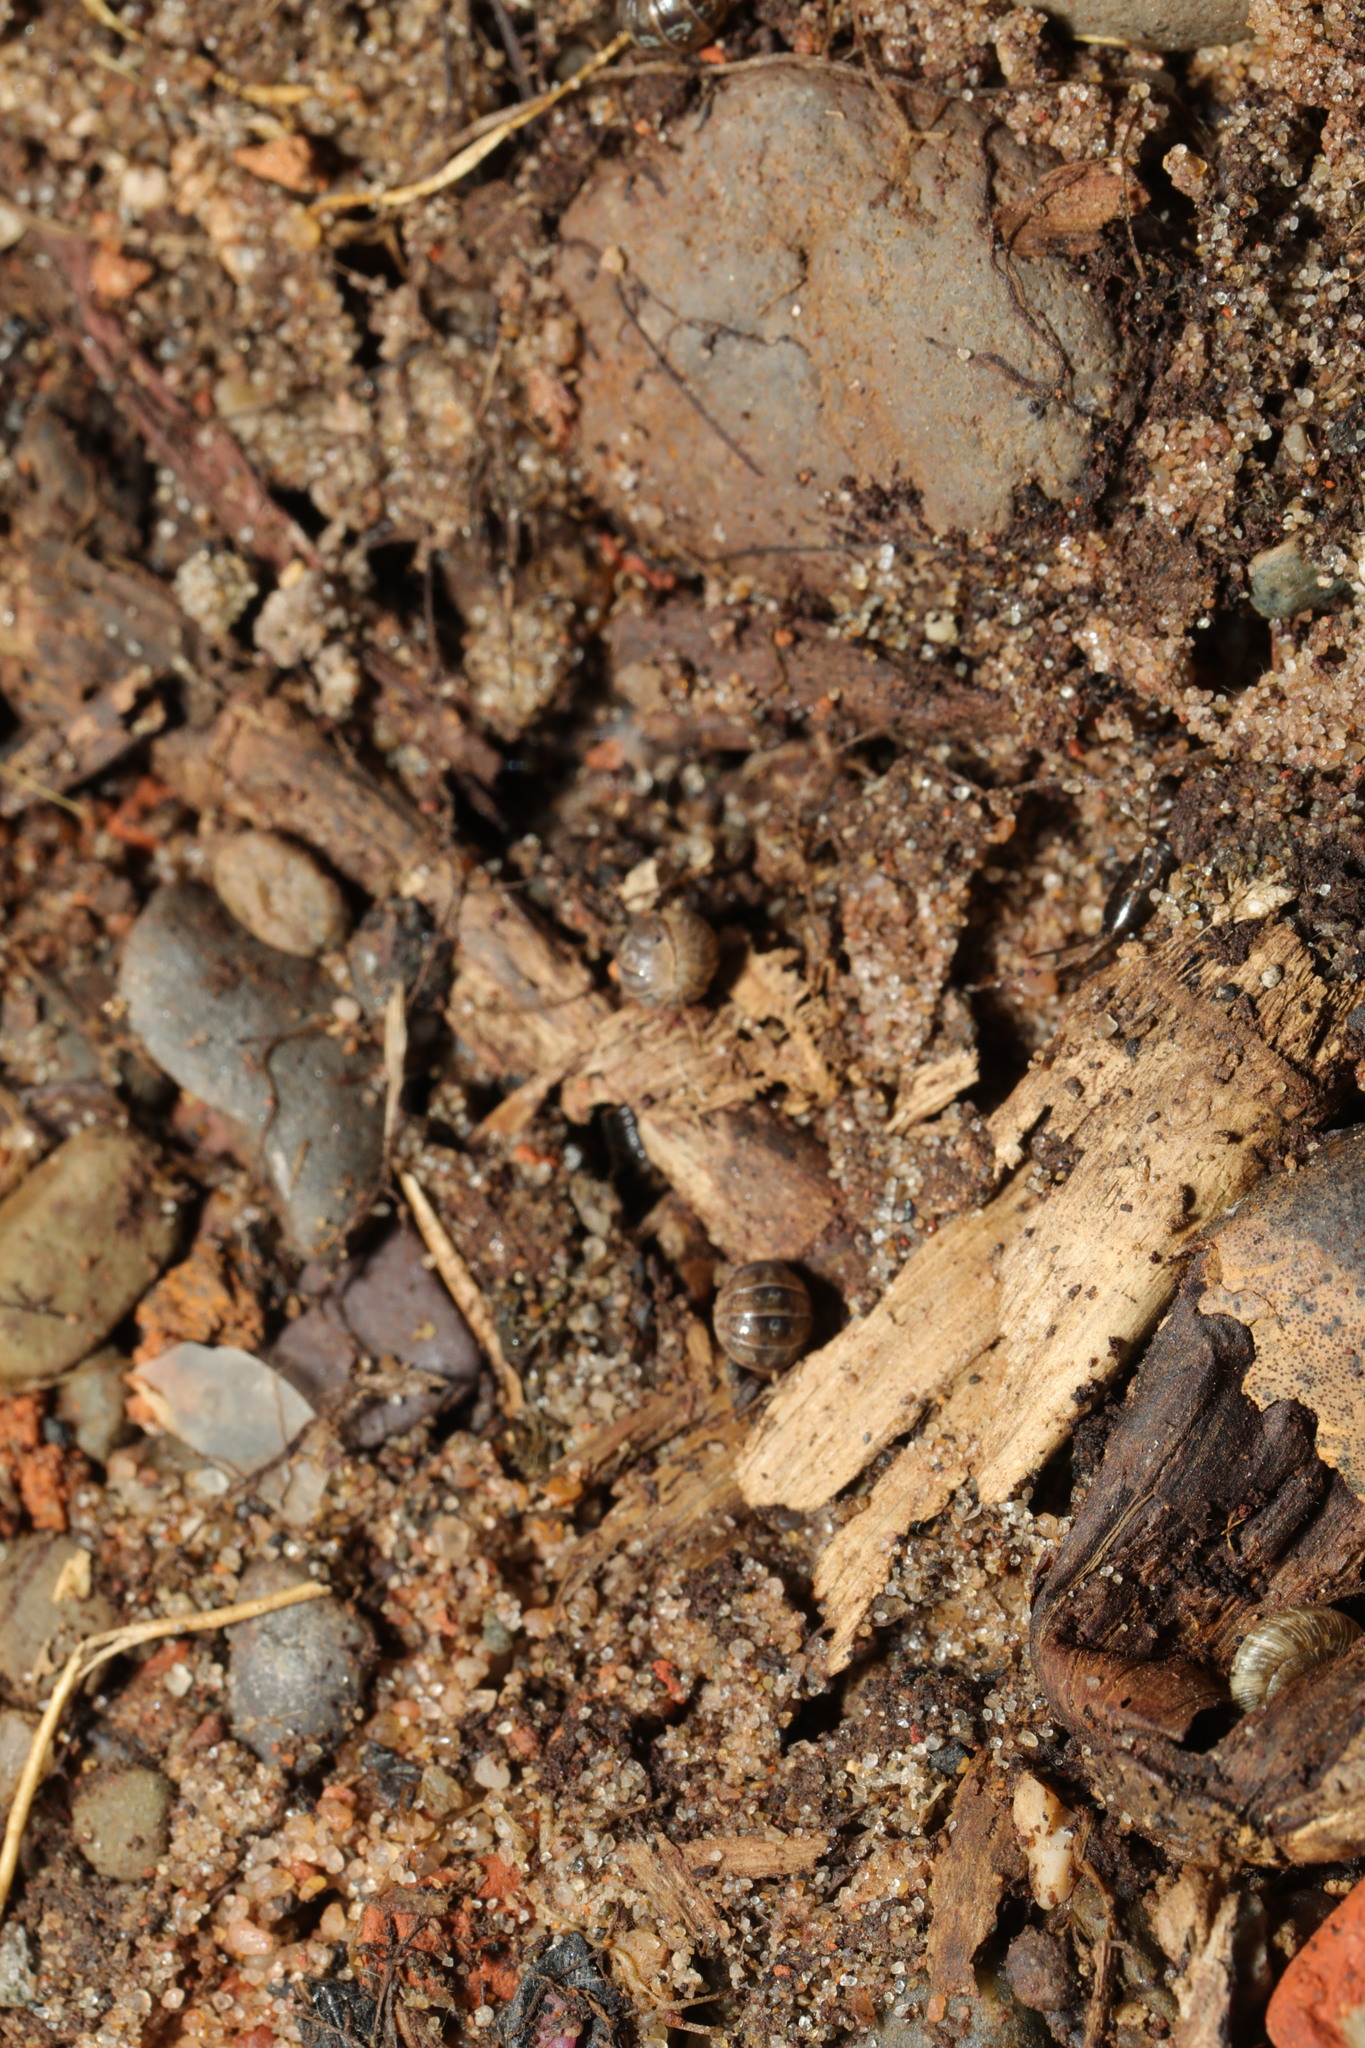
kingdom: Animalia
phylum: Arthropoda
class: Malacostraca
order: Isopoda
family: Armadillidiidae
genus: Armadillidium
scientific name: Armadillidium album
